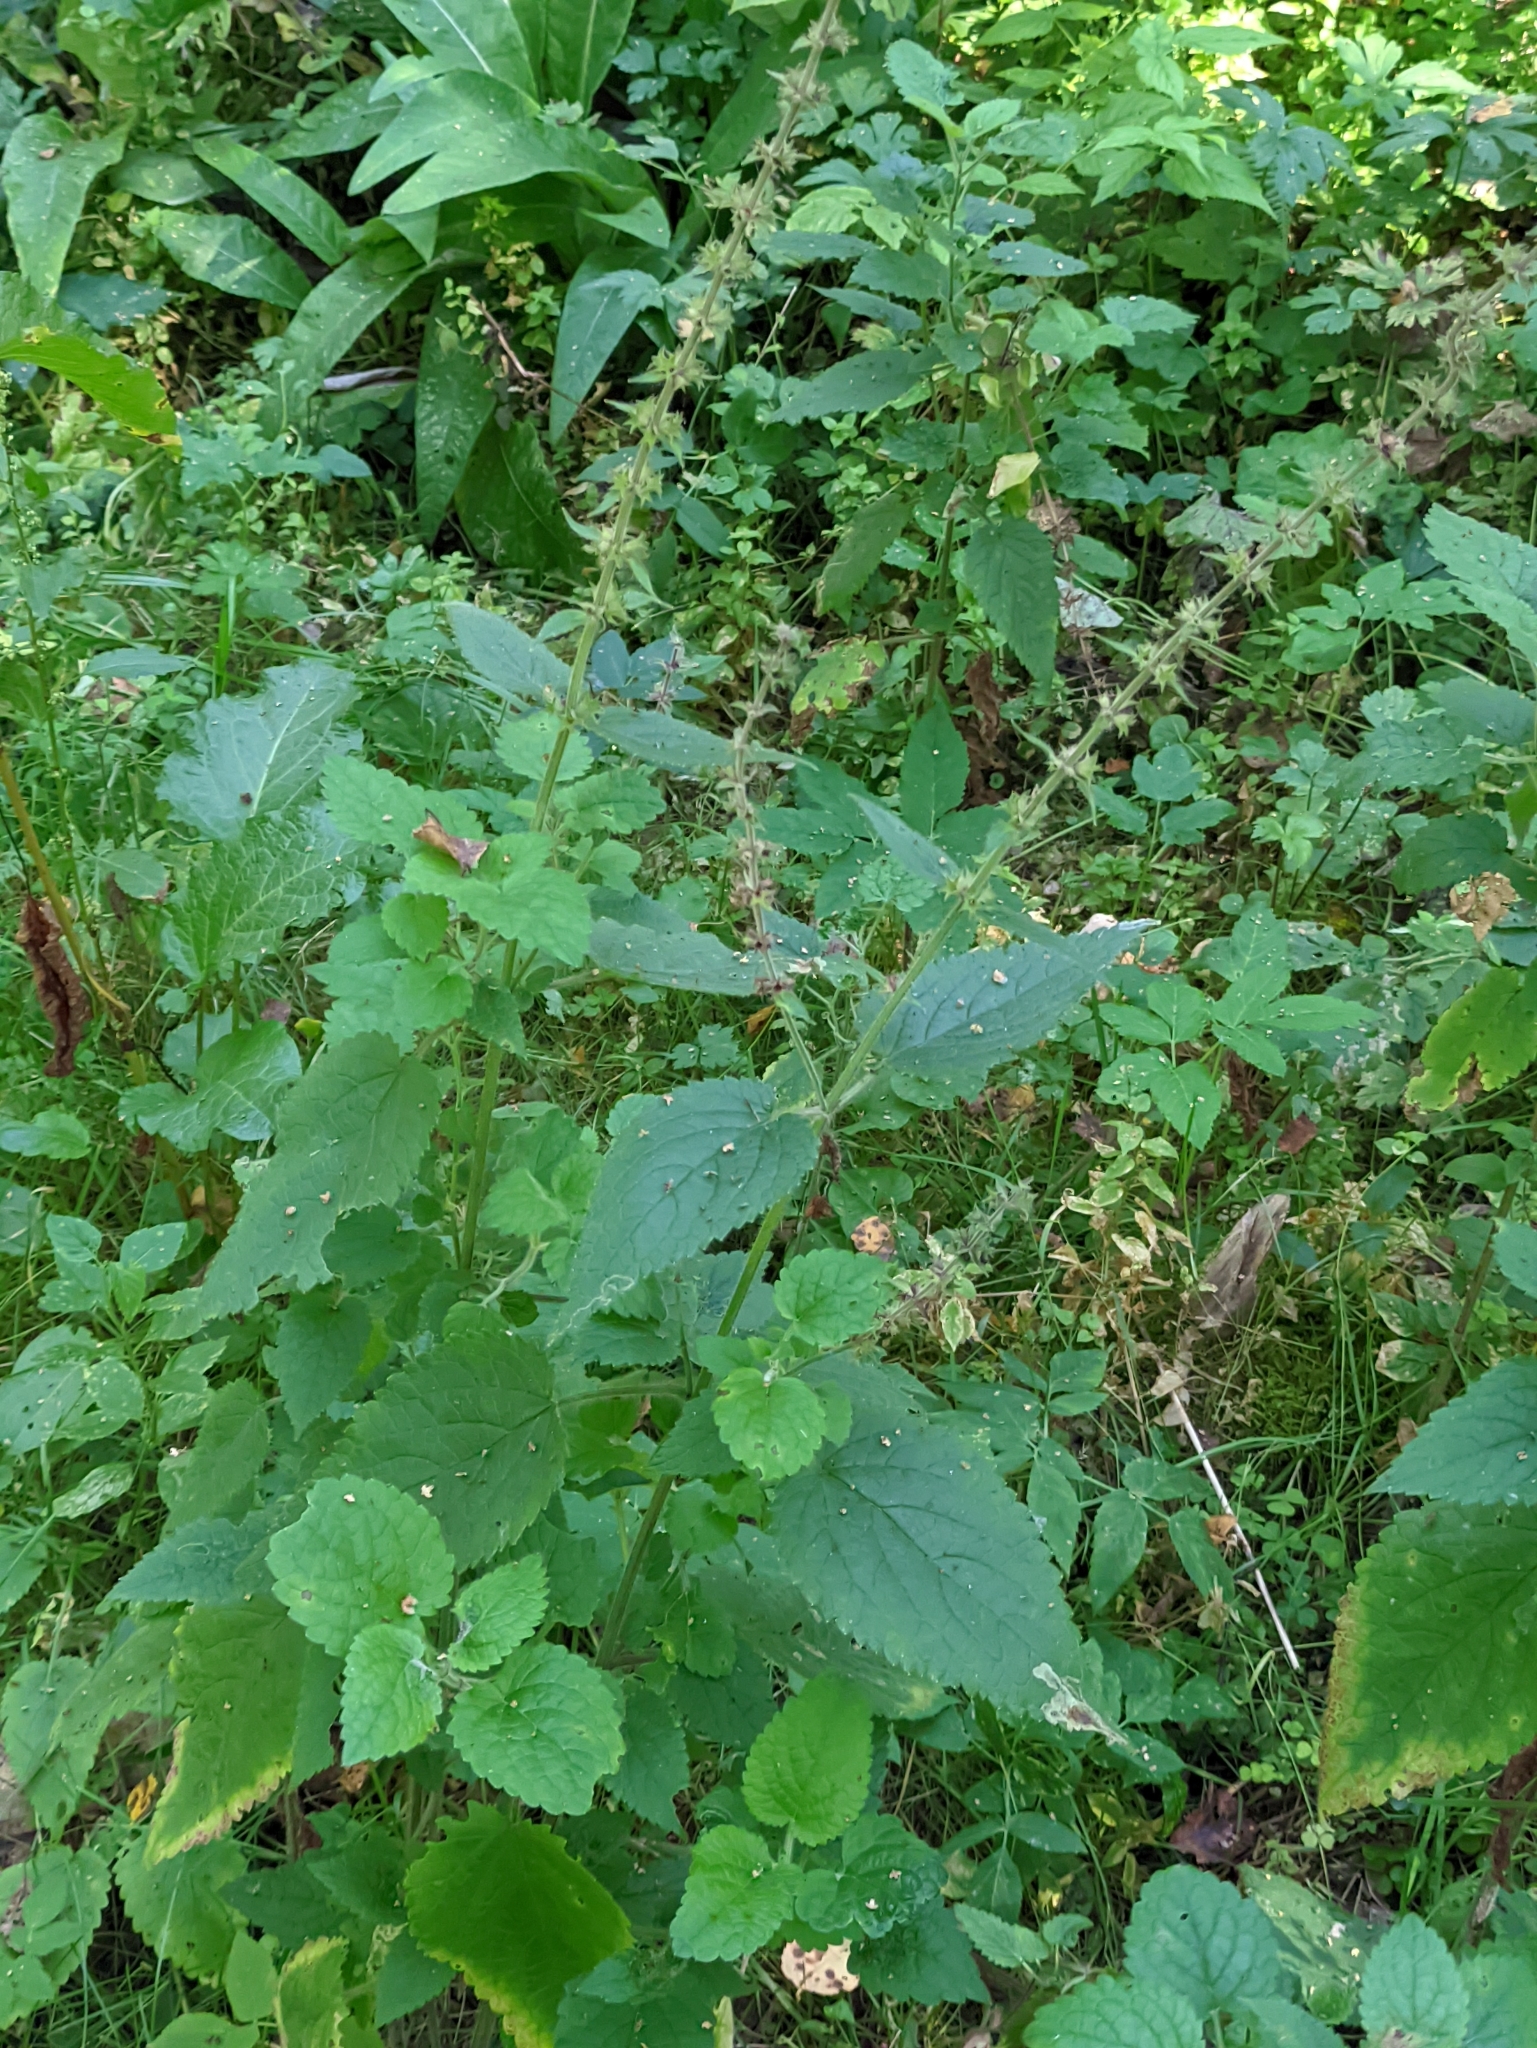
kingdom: Plantae
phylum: Tracheophyta
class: Magnoliopsida
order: Lamiales
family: Lamiaceae
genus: Stachys
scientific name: Stachys sylvatica
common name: Hedge woundwort
